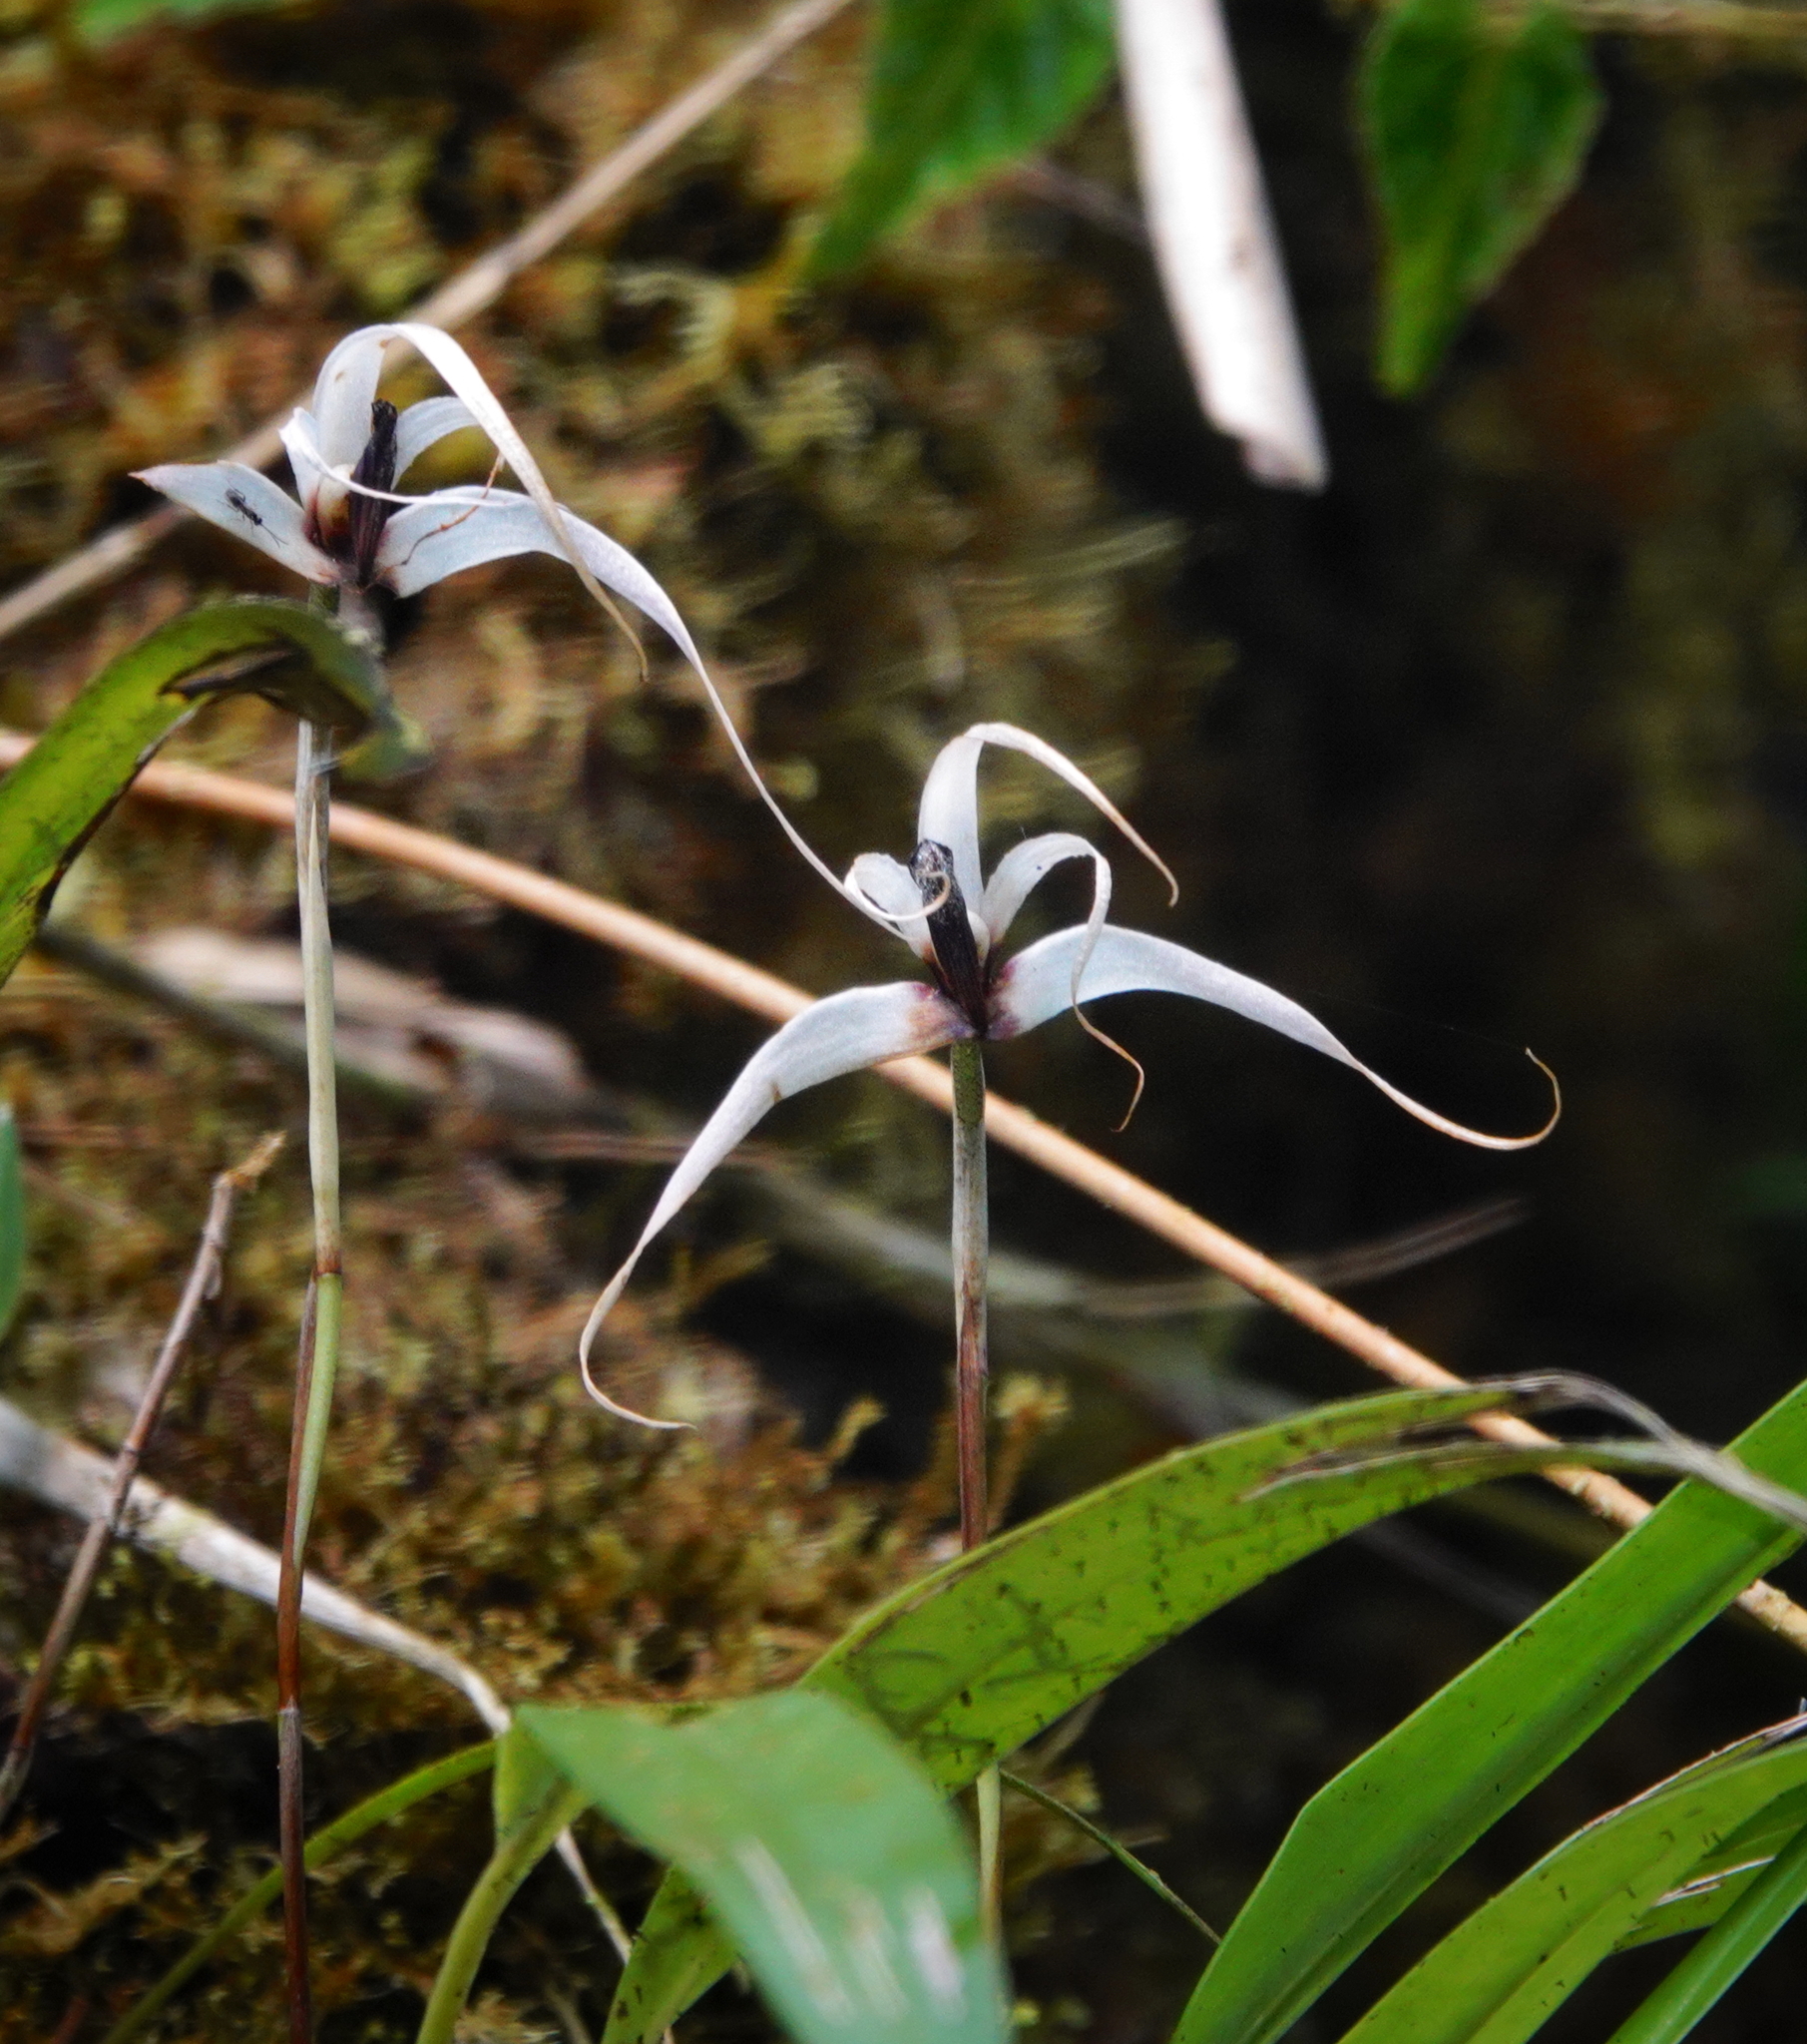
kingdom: Plantae
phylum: Tracheophyta
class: Liliopsida
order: Asparagales
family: Orchidaceae
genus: Maxillaria
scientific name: Maxillaria caucana
